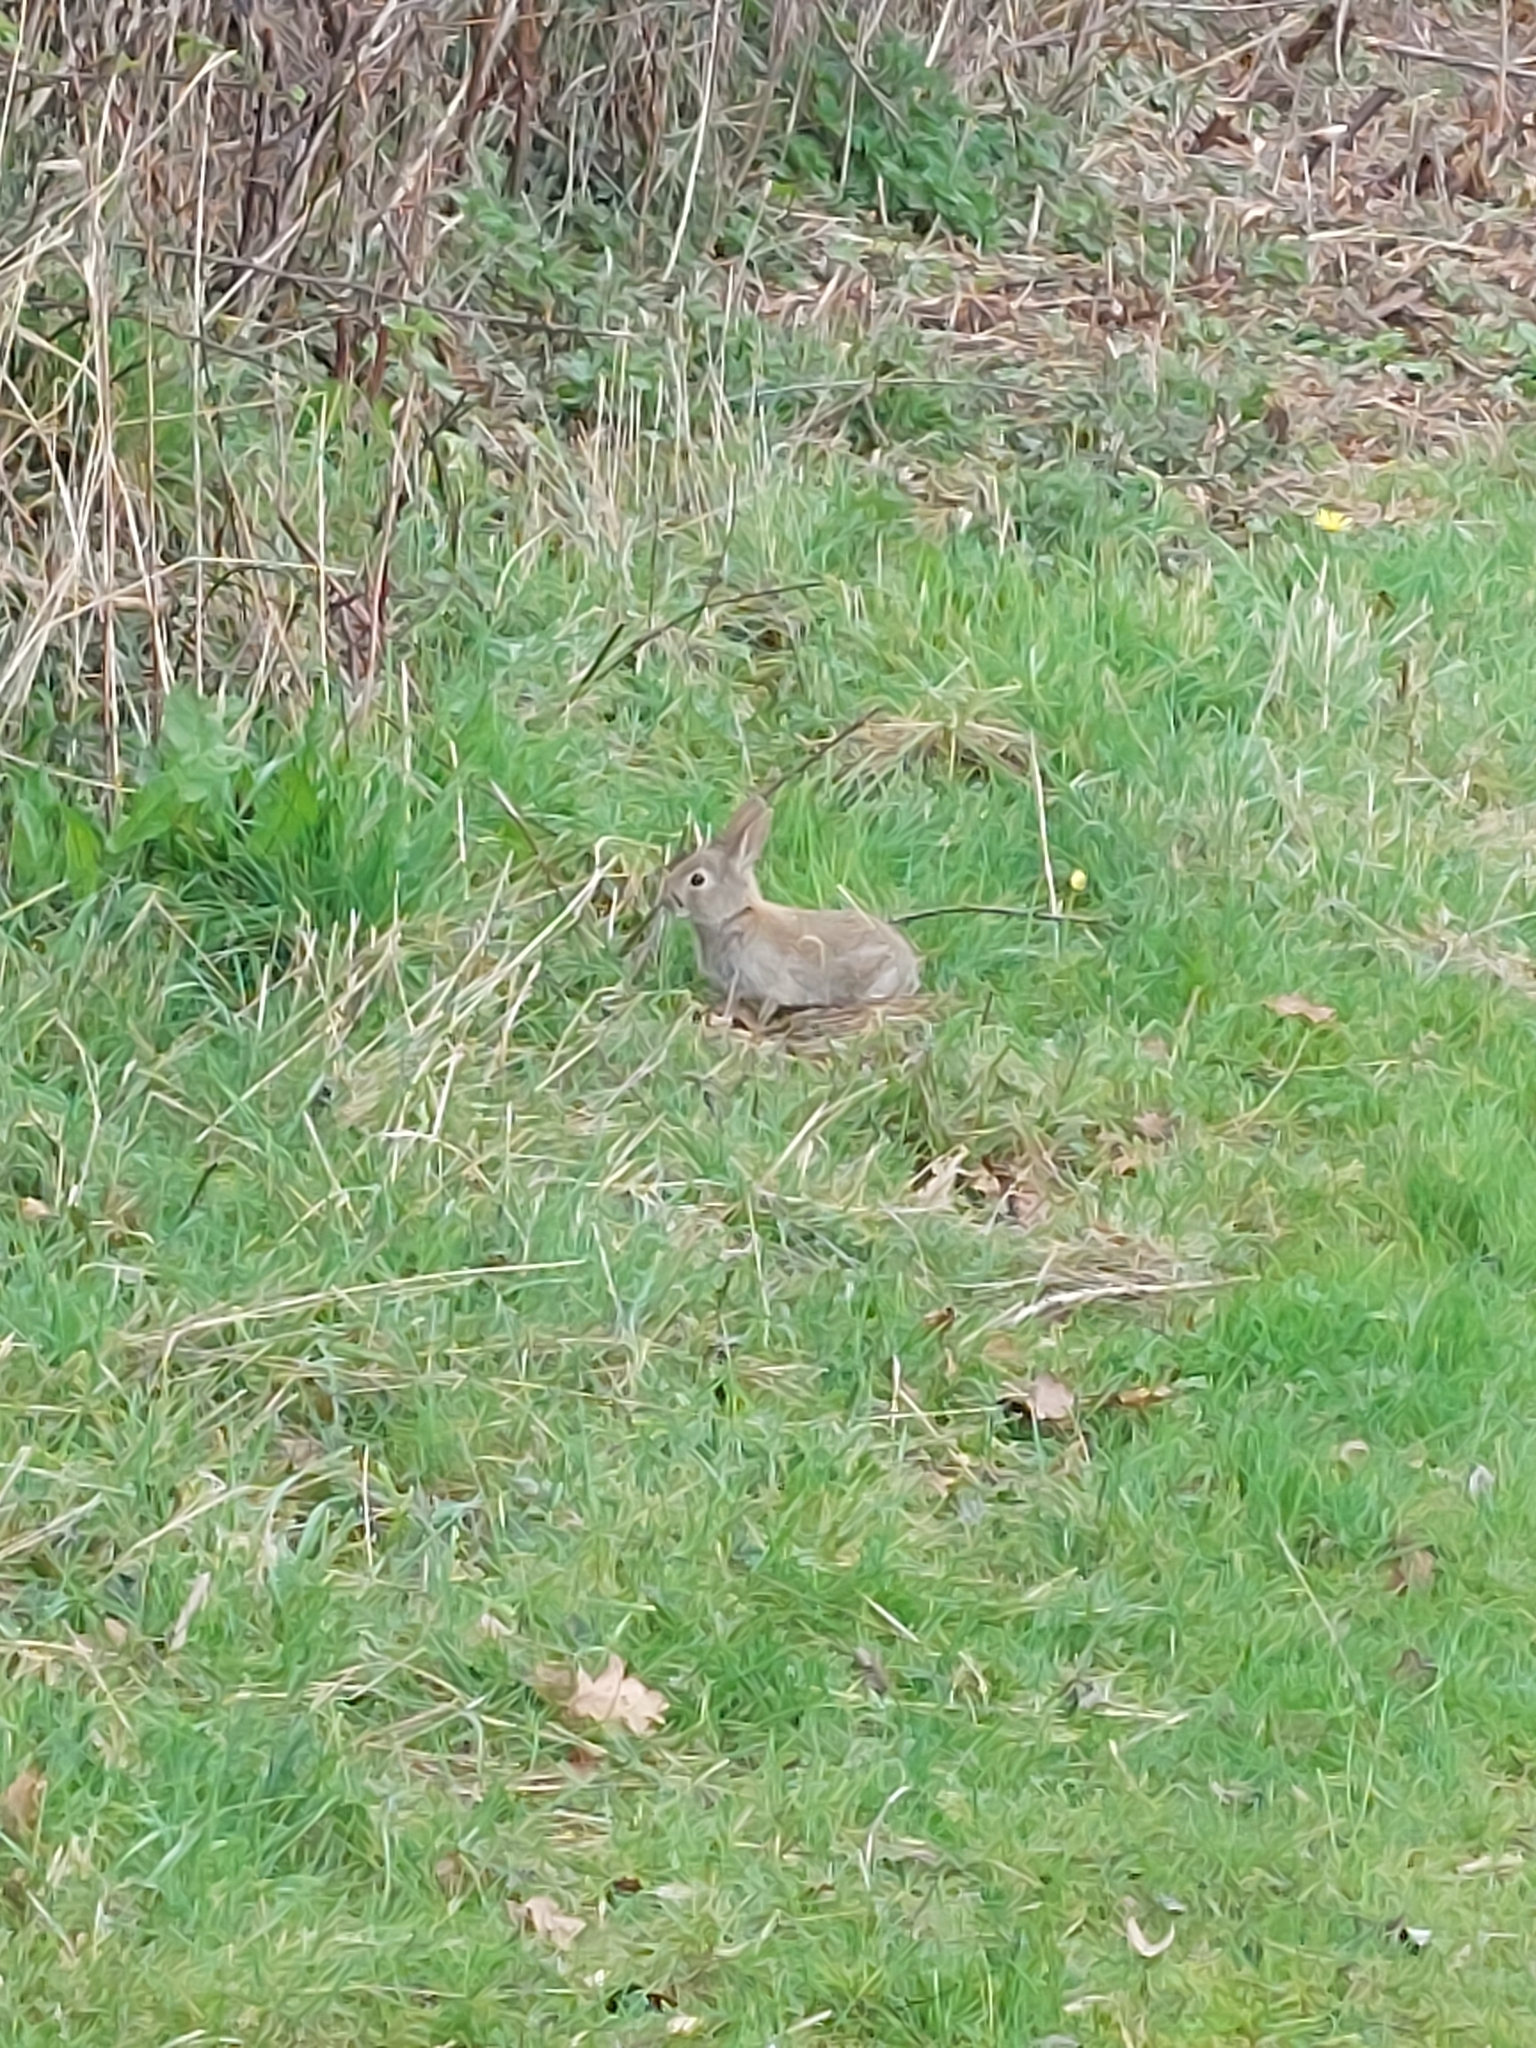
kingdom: Animalia
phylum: Chordata
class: Mammalia
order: Lagomorpha
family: Leporidae
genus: Oryctolagus
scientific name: Oryctolagus cuniculus
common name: European rabbit
